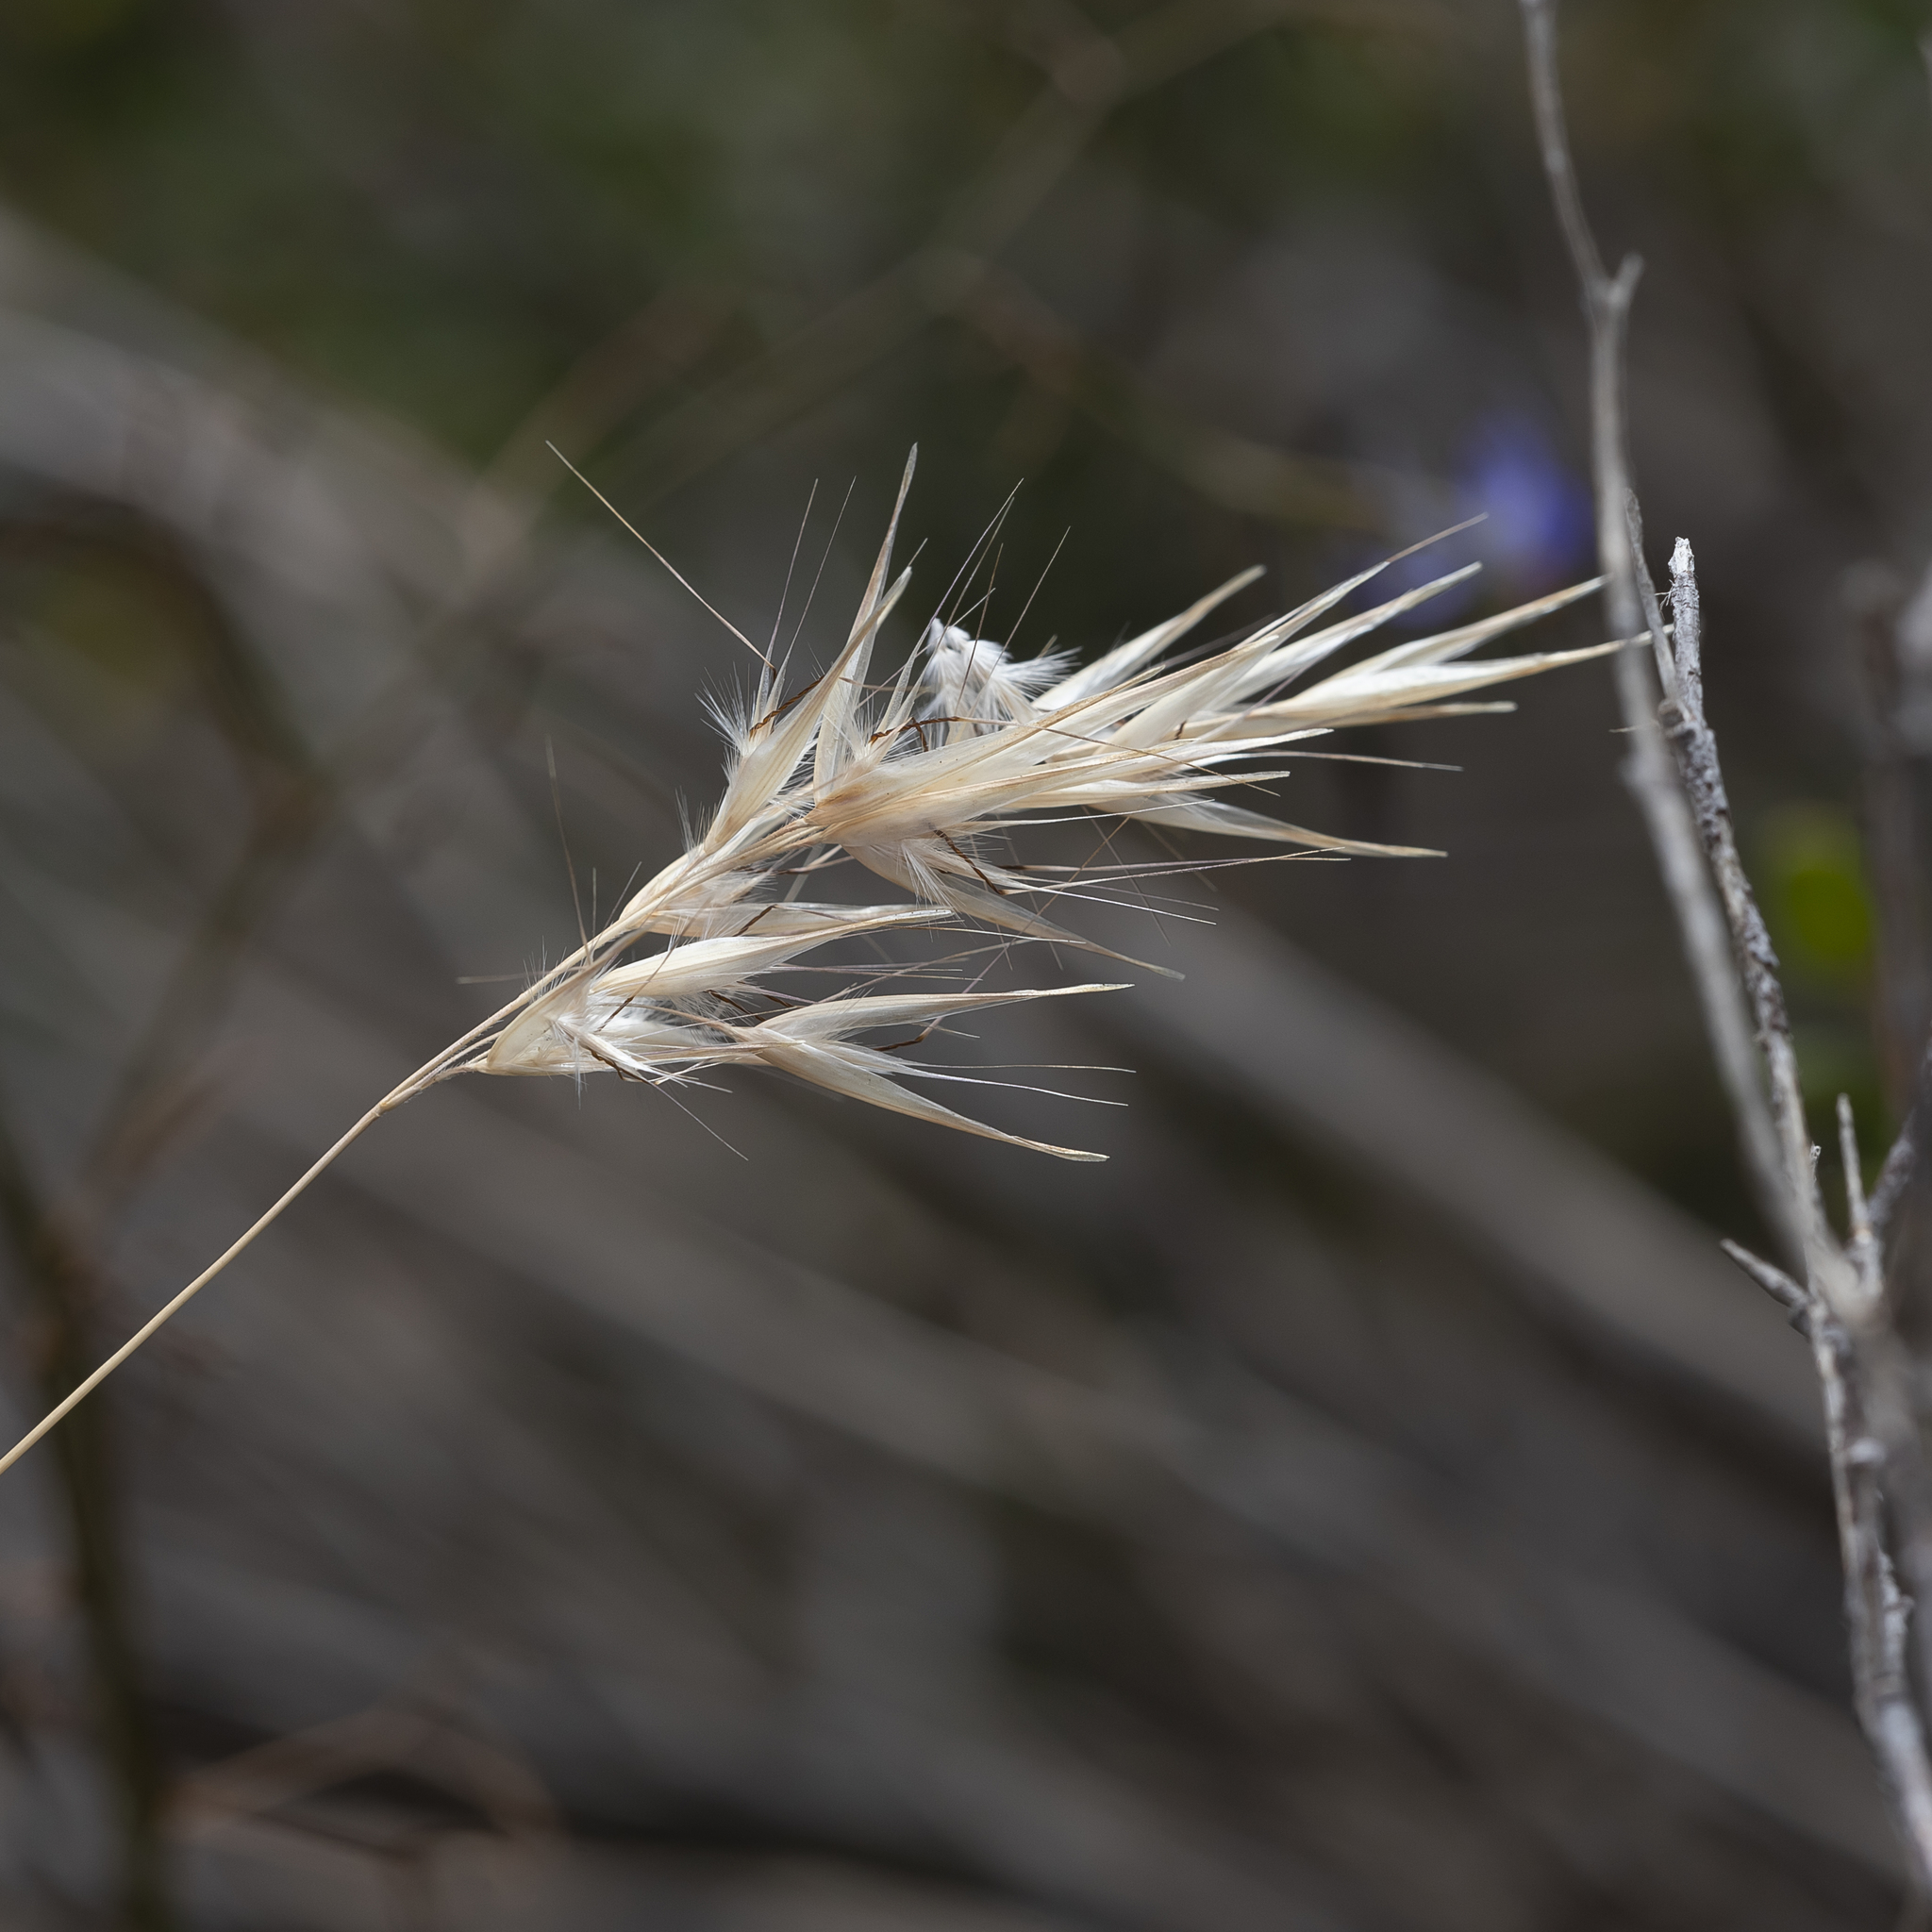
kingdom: Plantae
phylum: Tracheophyta
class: Liliopsida
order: Poales
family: Poaceae
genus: Rytidosperma
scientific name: Rytidosperma caespitosum
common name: Tufted wallaby grass
